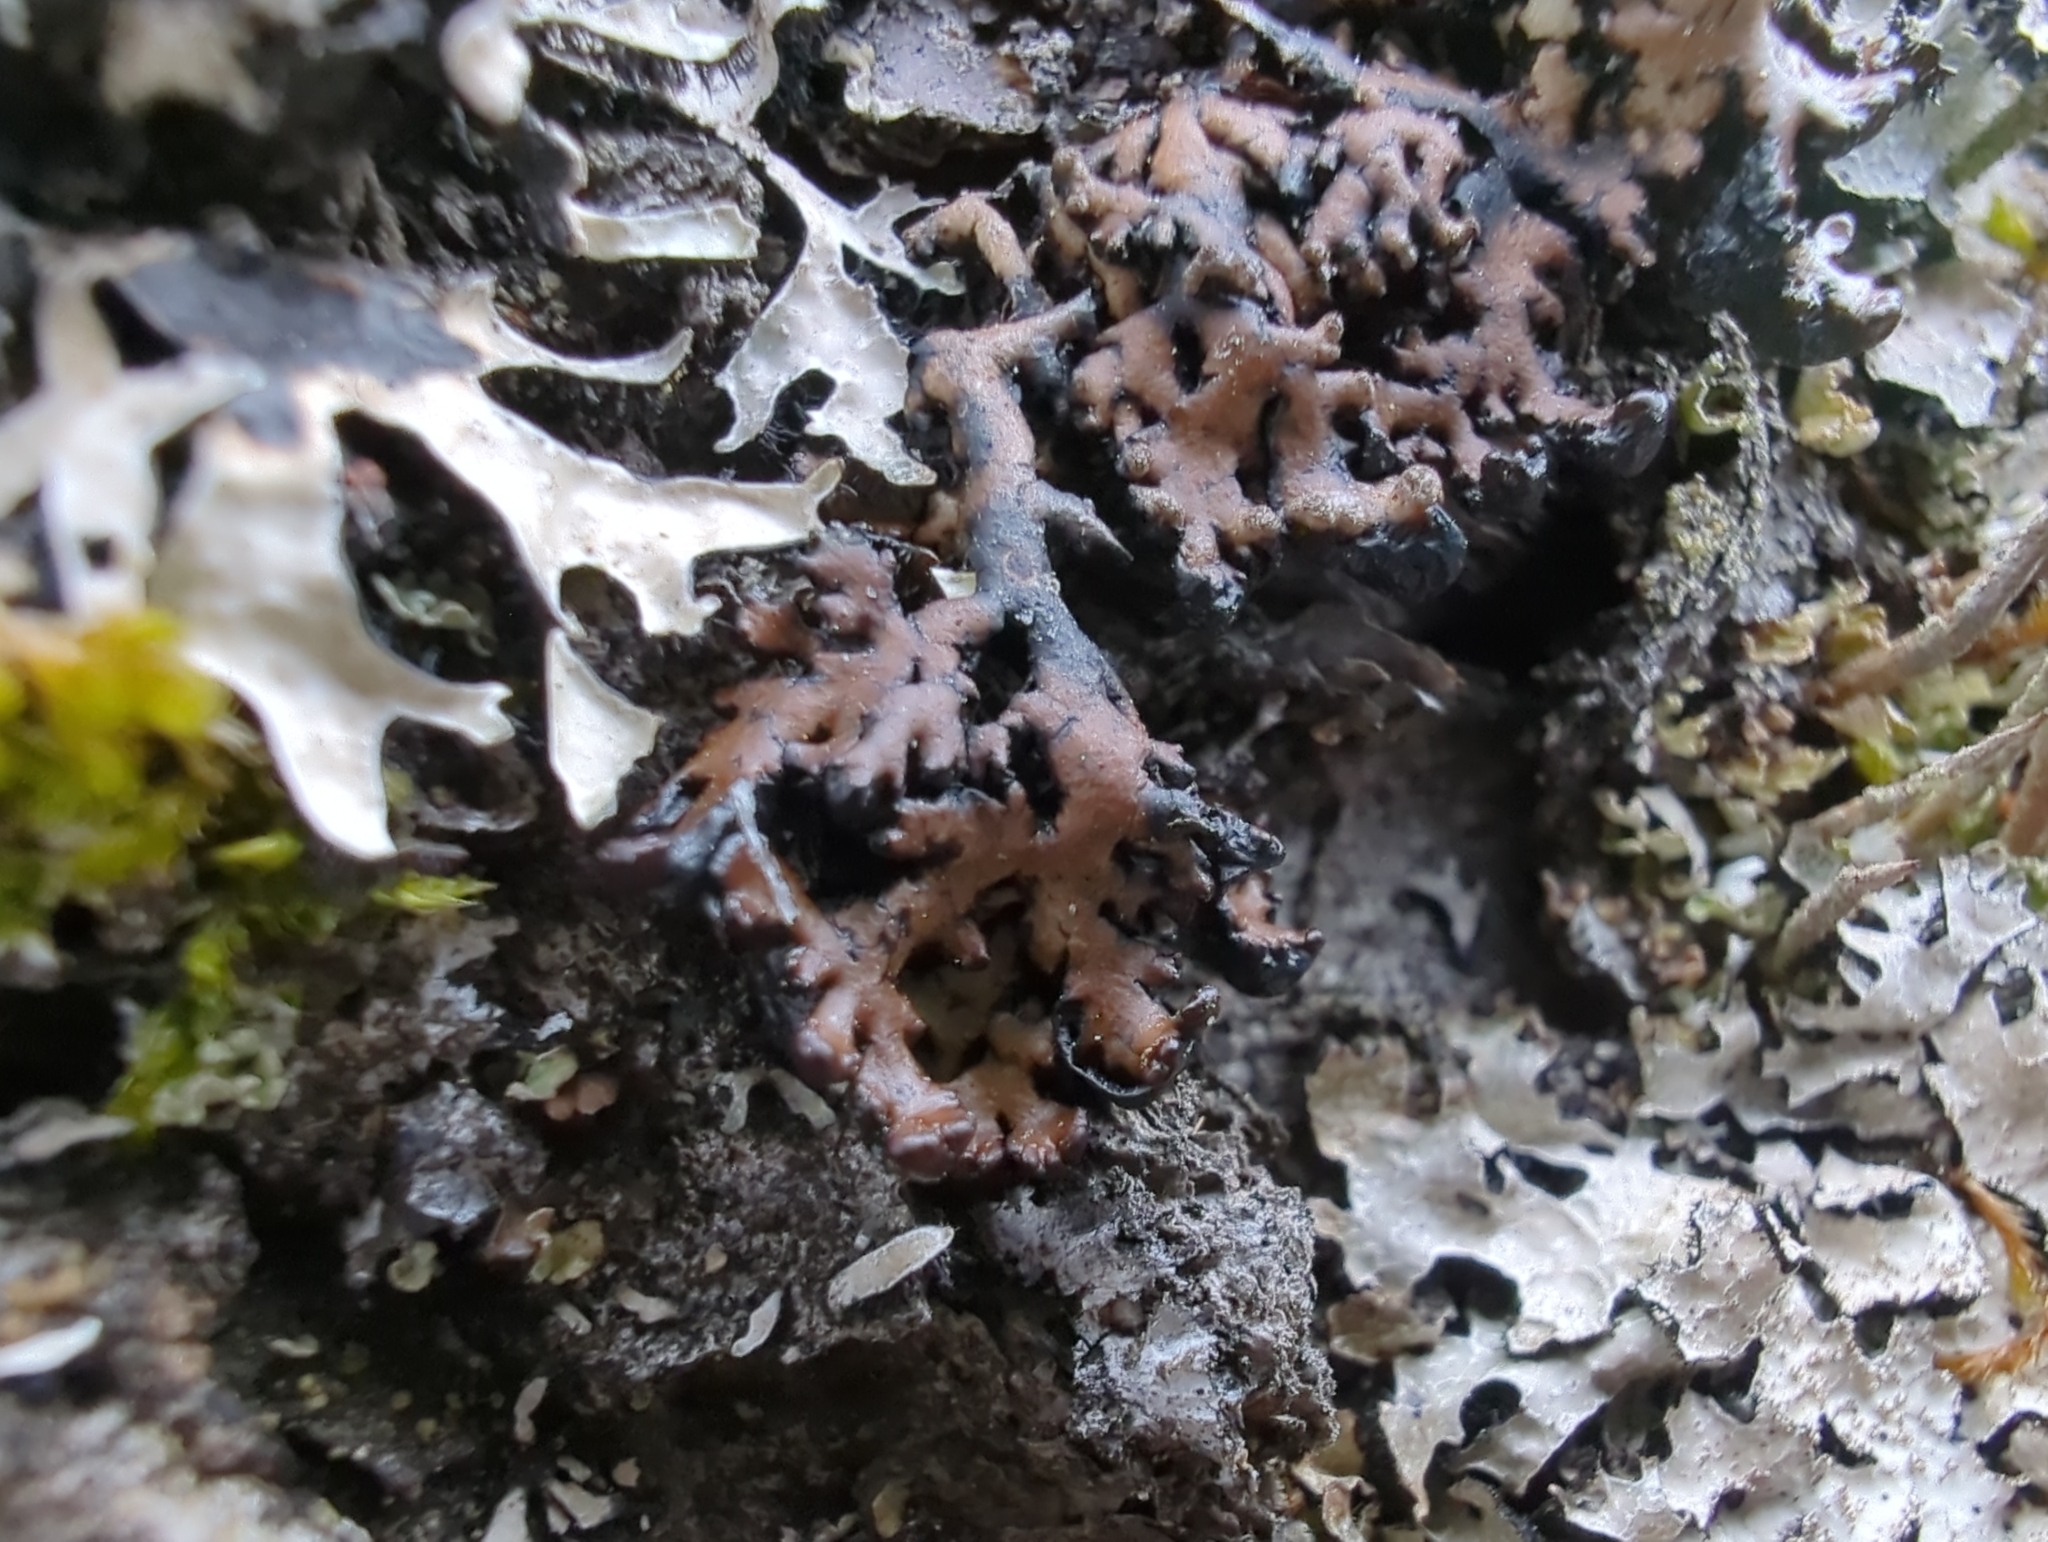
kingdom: Fungi
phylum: Ascomycota
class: Lecanoromycetes
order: Lecanorales
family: Parmeliaceae
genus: Hypogymnia
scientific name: Hypogymnia austerodes
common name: Varnished tube lichen
